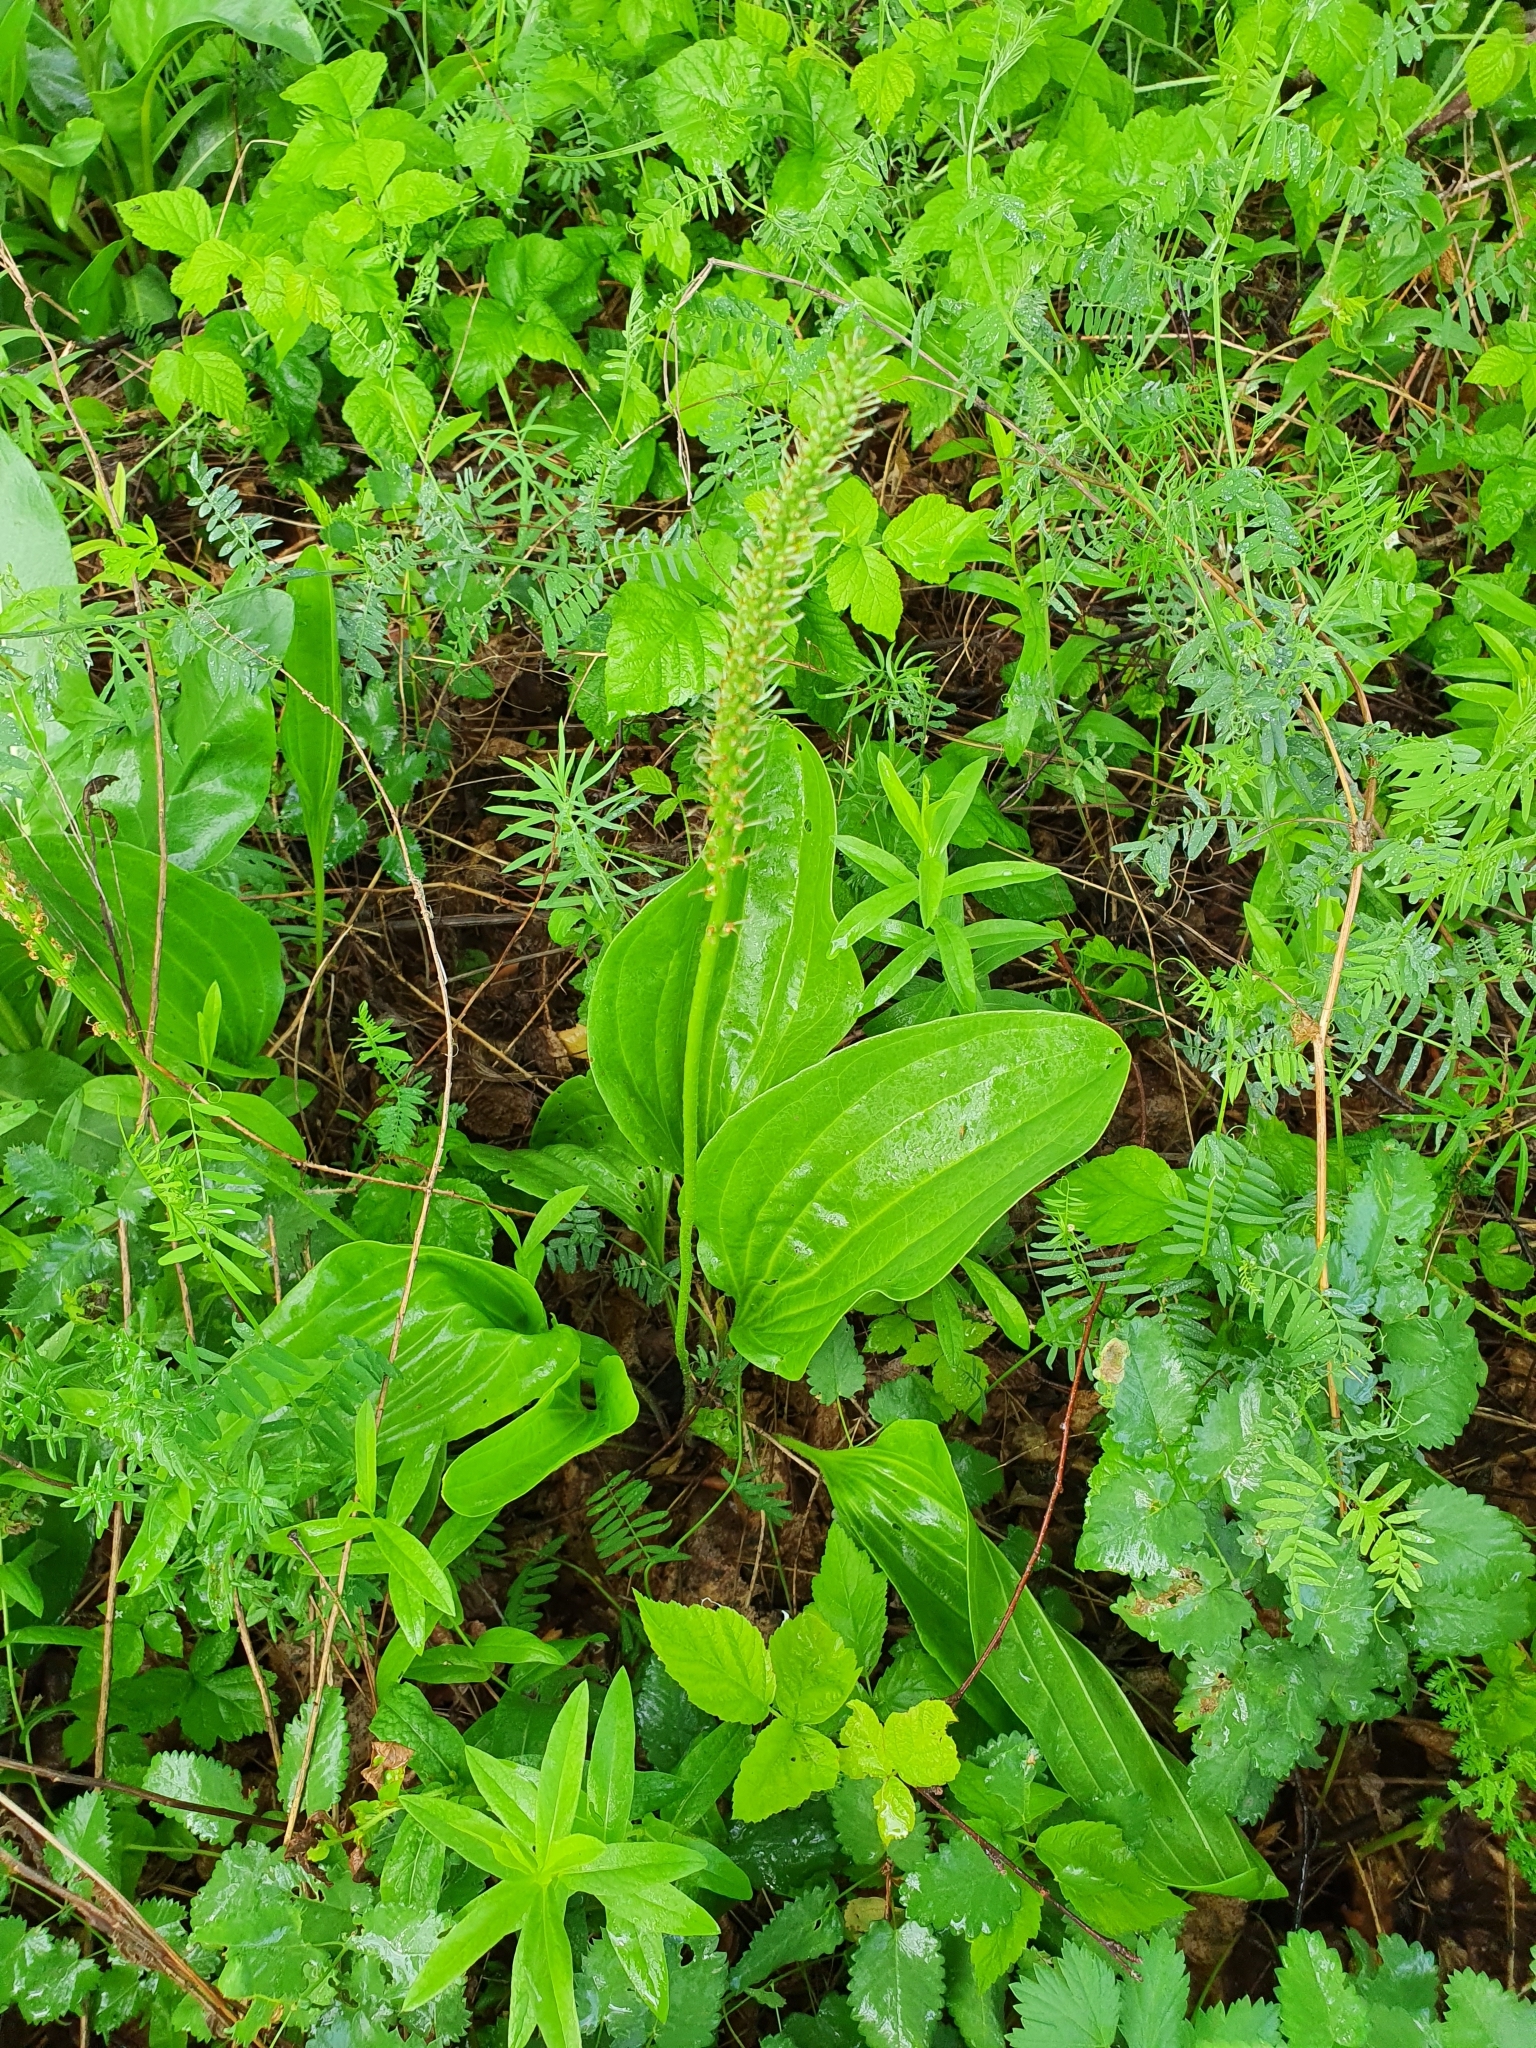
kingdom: Plantae
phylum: Tracheophyta
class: Magnoliopsida
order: Lamiales
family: Plantaginaceae
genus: Plantago
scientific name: Plantago cornuti
